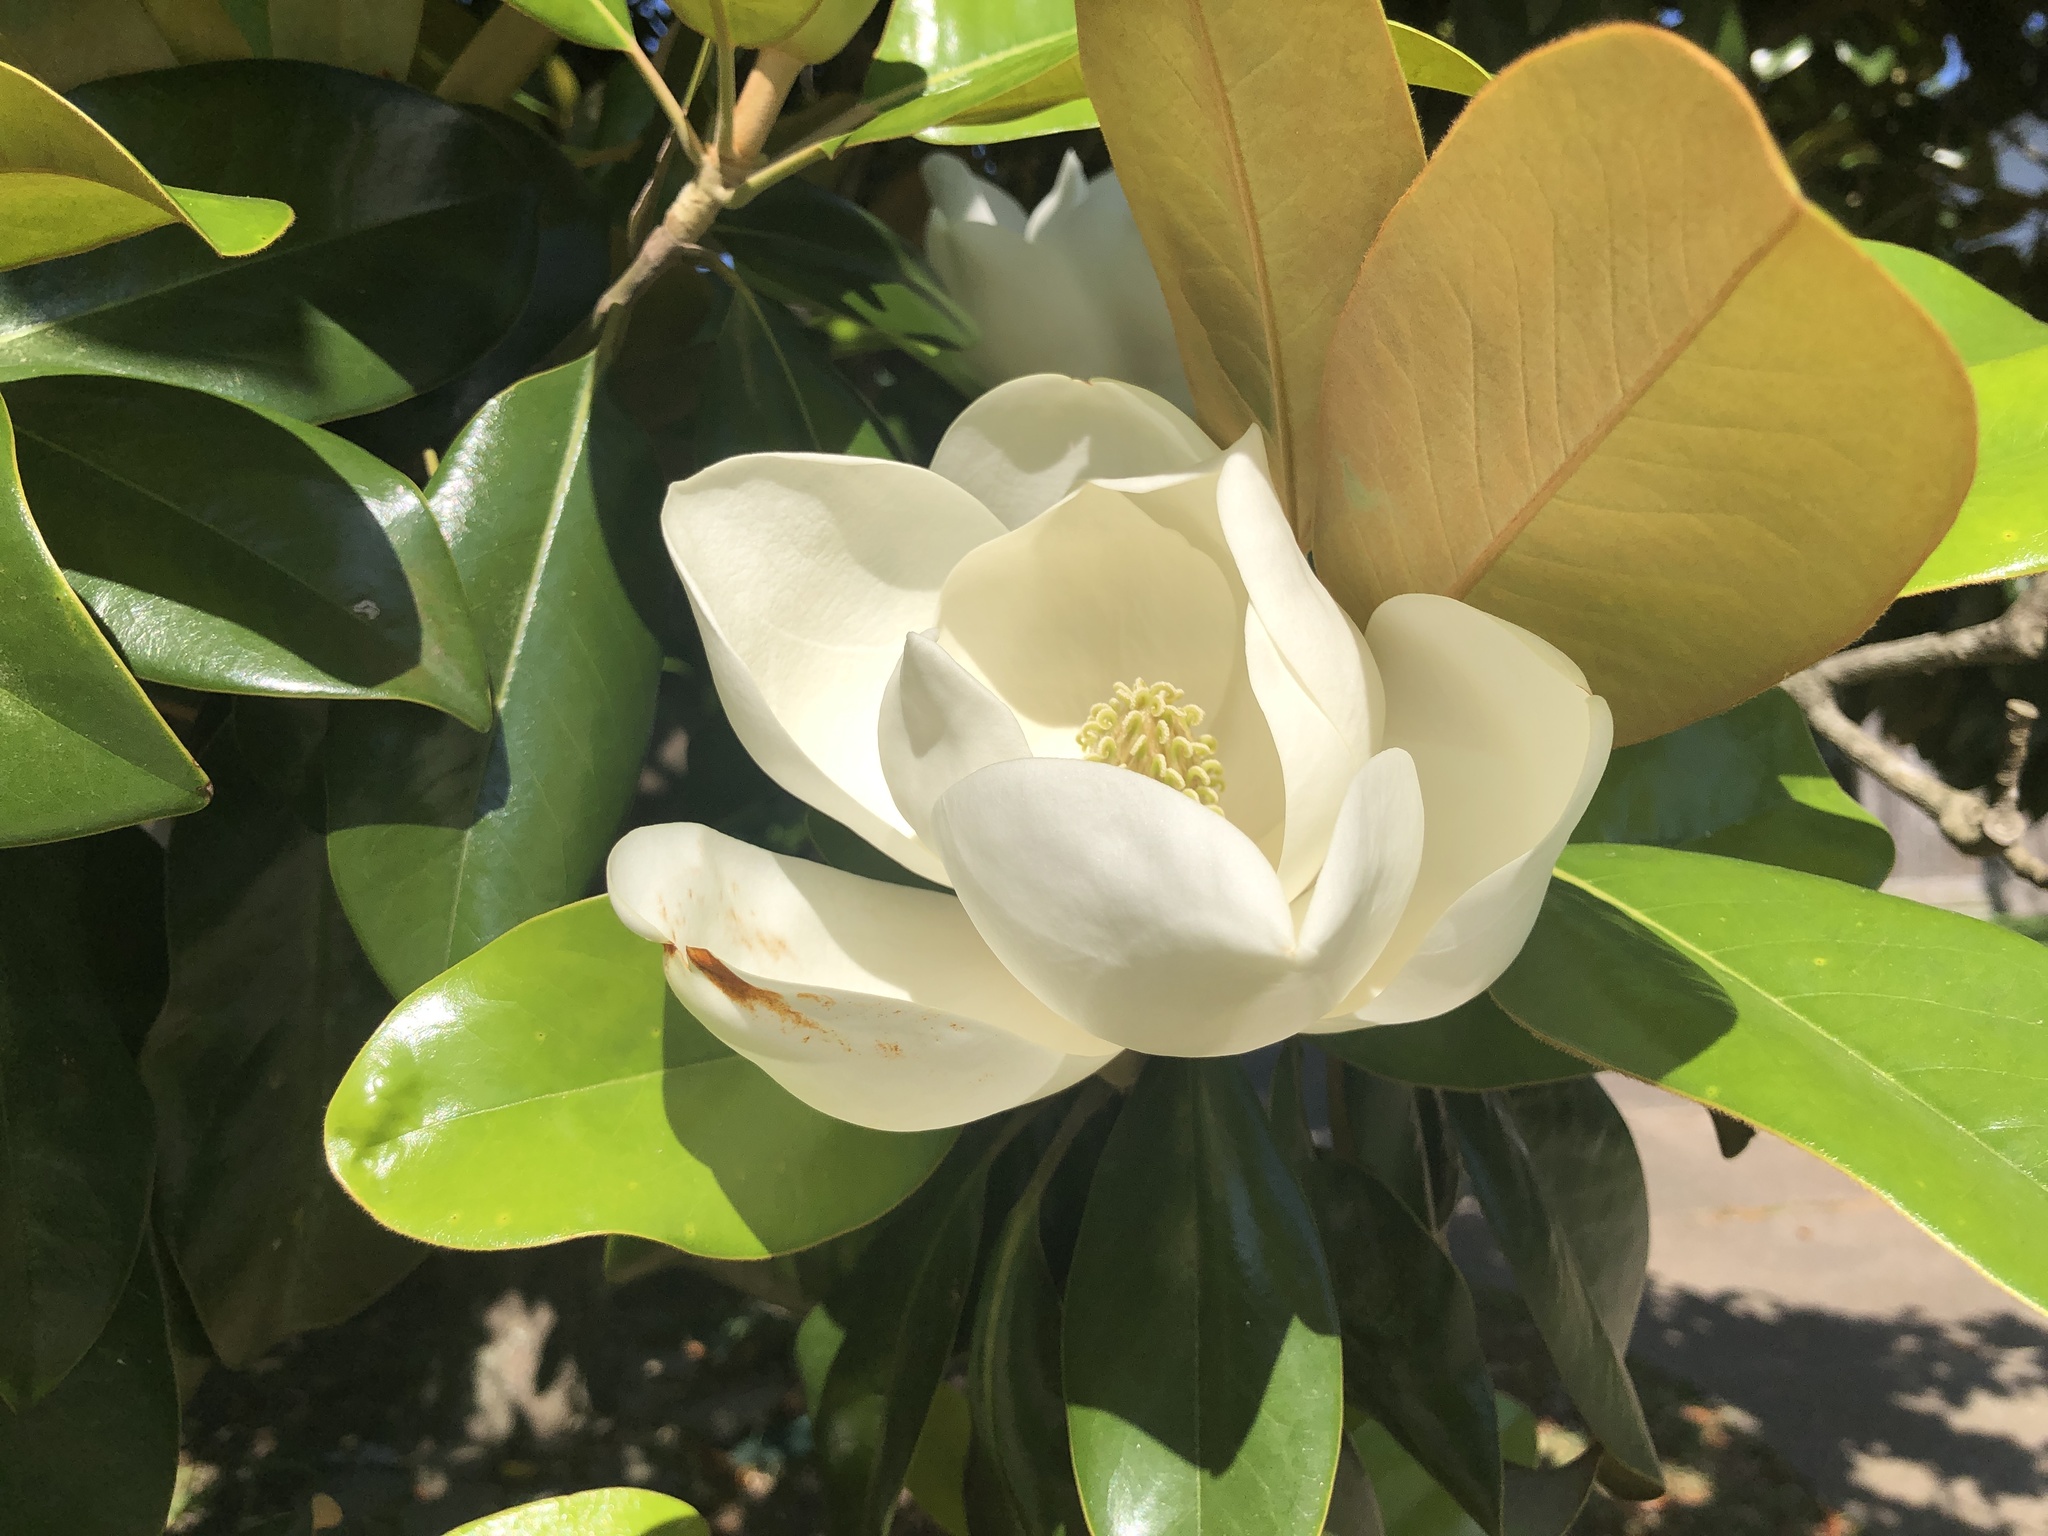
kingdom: Plantae
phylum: Tracheophyta
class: Magnoliopsida
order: Magnoliales
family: Magnoliaceae
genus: Magnolia
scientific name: Magnolia grandiflora
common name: Southern magnolia
